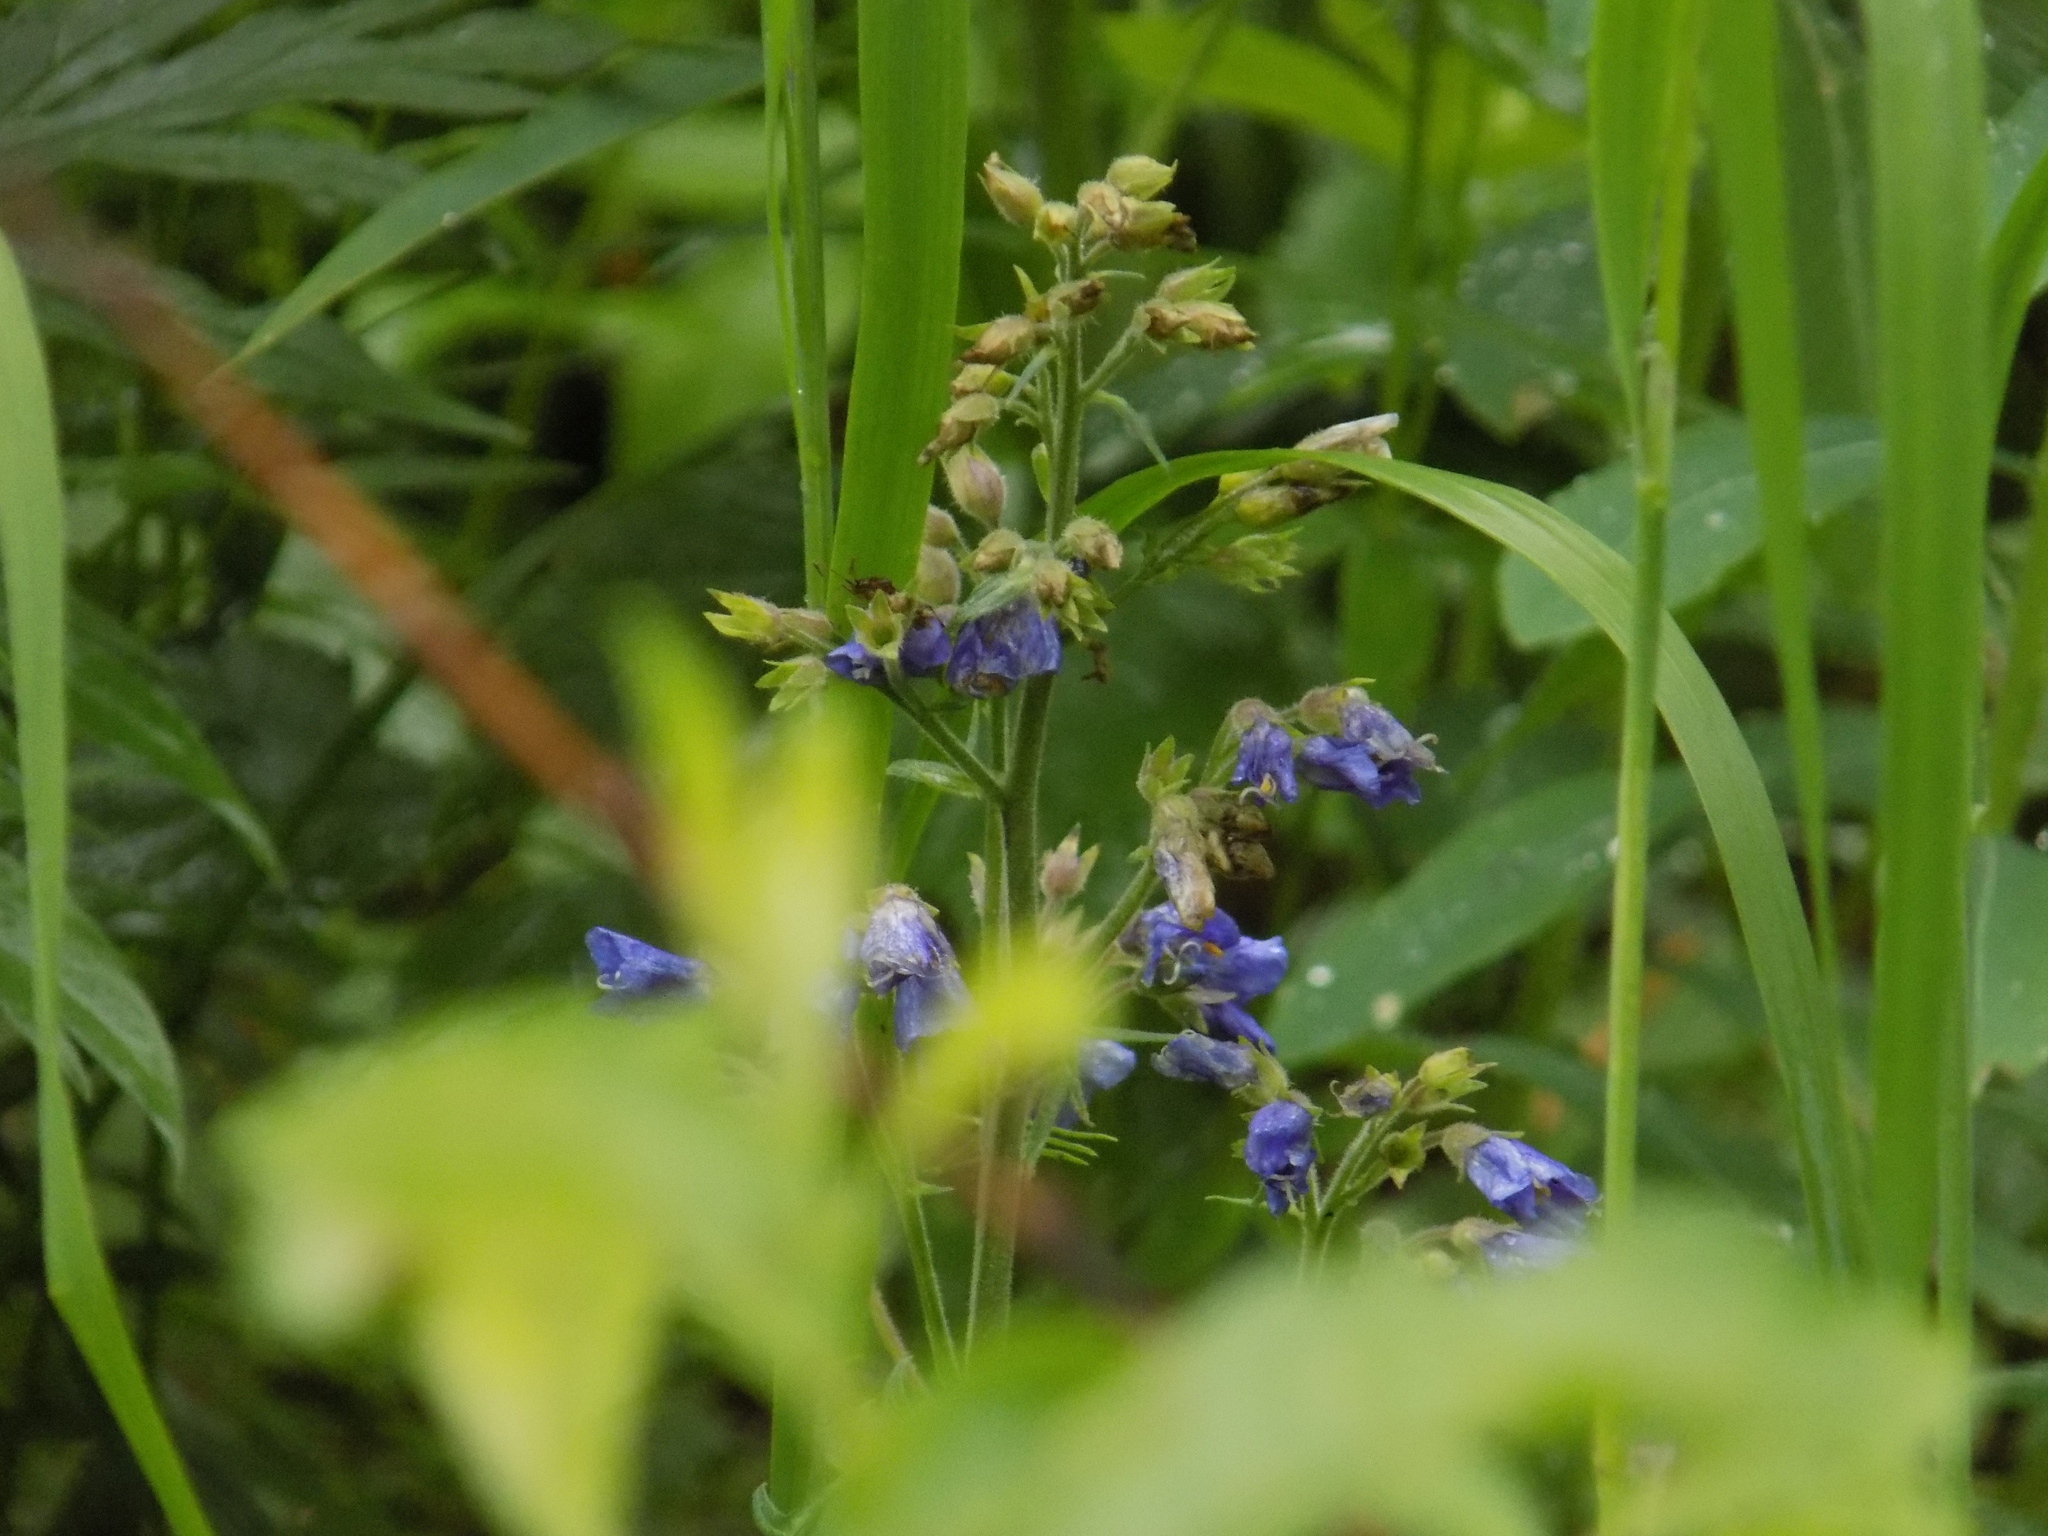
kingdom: Plantae
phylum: Tracheophyta
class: Magnoliopsida
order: Ericales
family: Polemoniaceae
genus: Polemonium
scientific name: Polemonium caeruleum
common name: Jacob's-ladder
